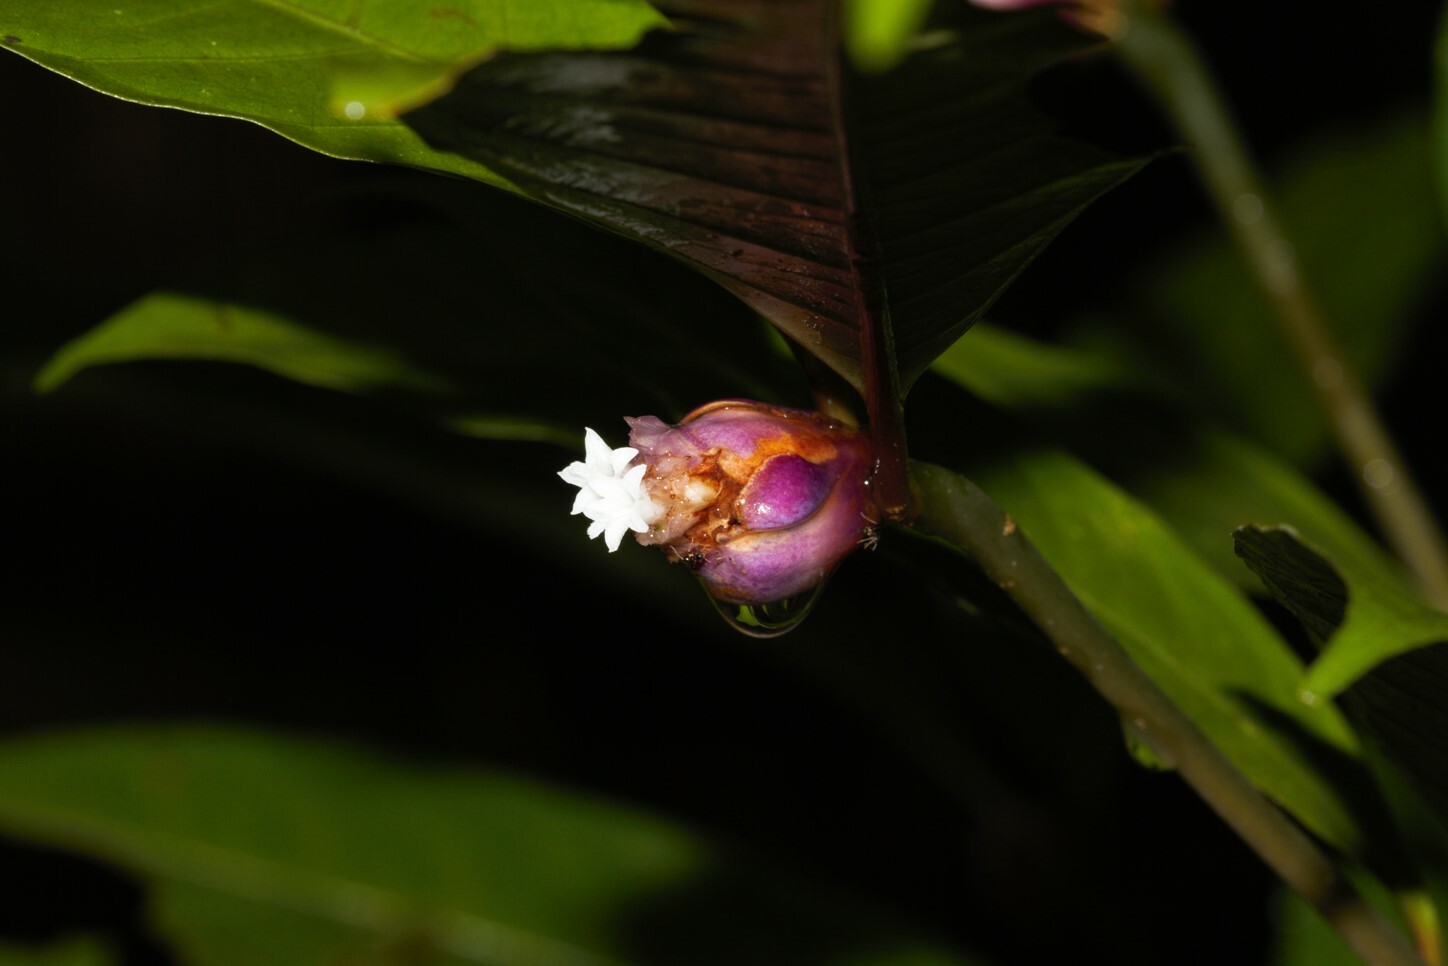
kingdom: Plantae
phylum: Tracheophyta
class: Magnoliopsida
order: Gentianales
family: Rubiaceae
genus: Palicourea
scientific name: Palicourea apoda
